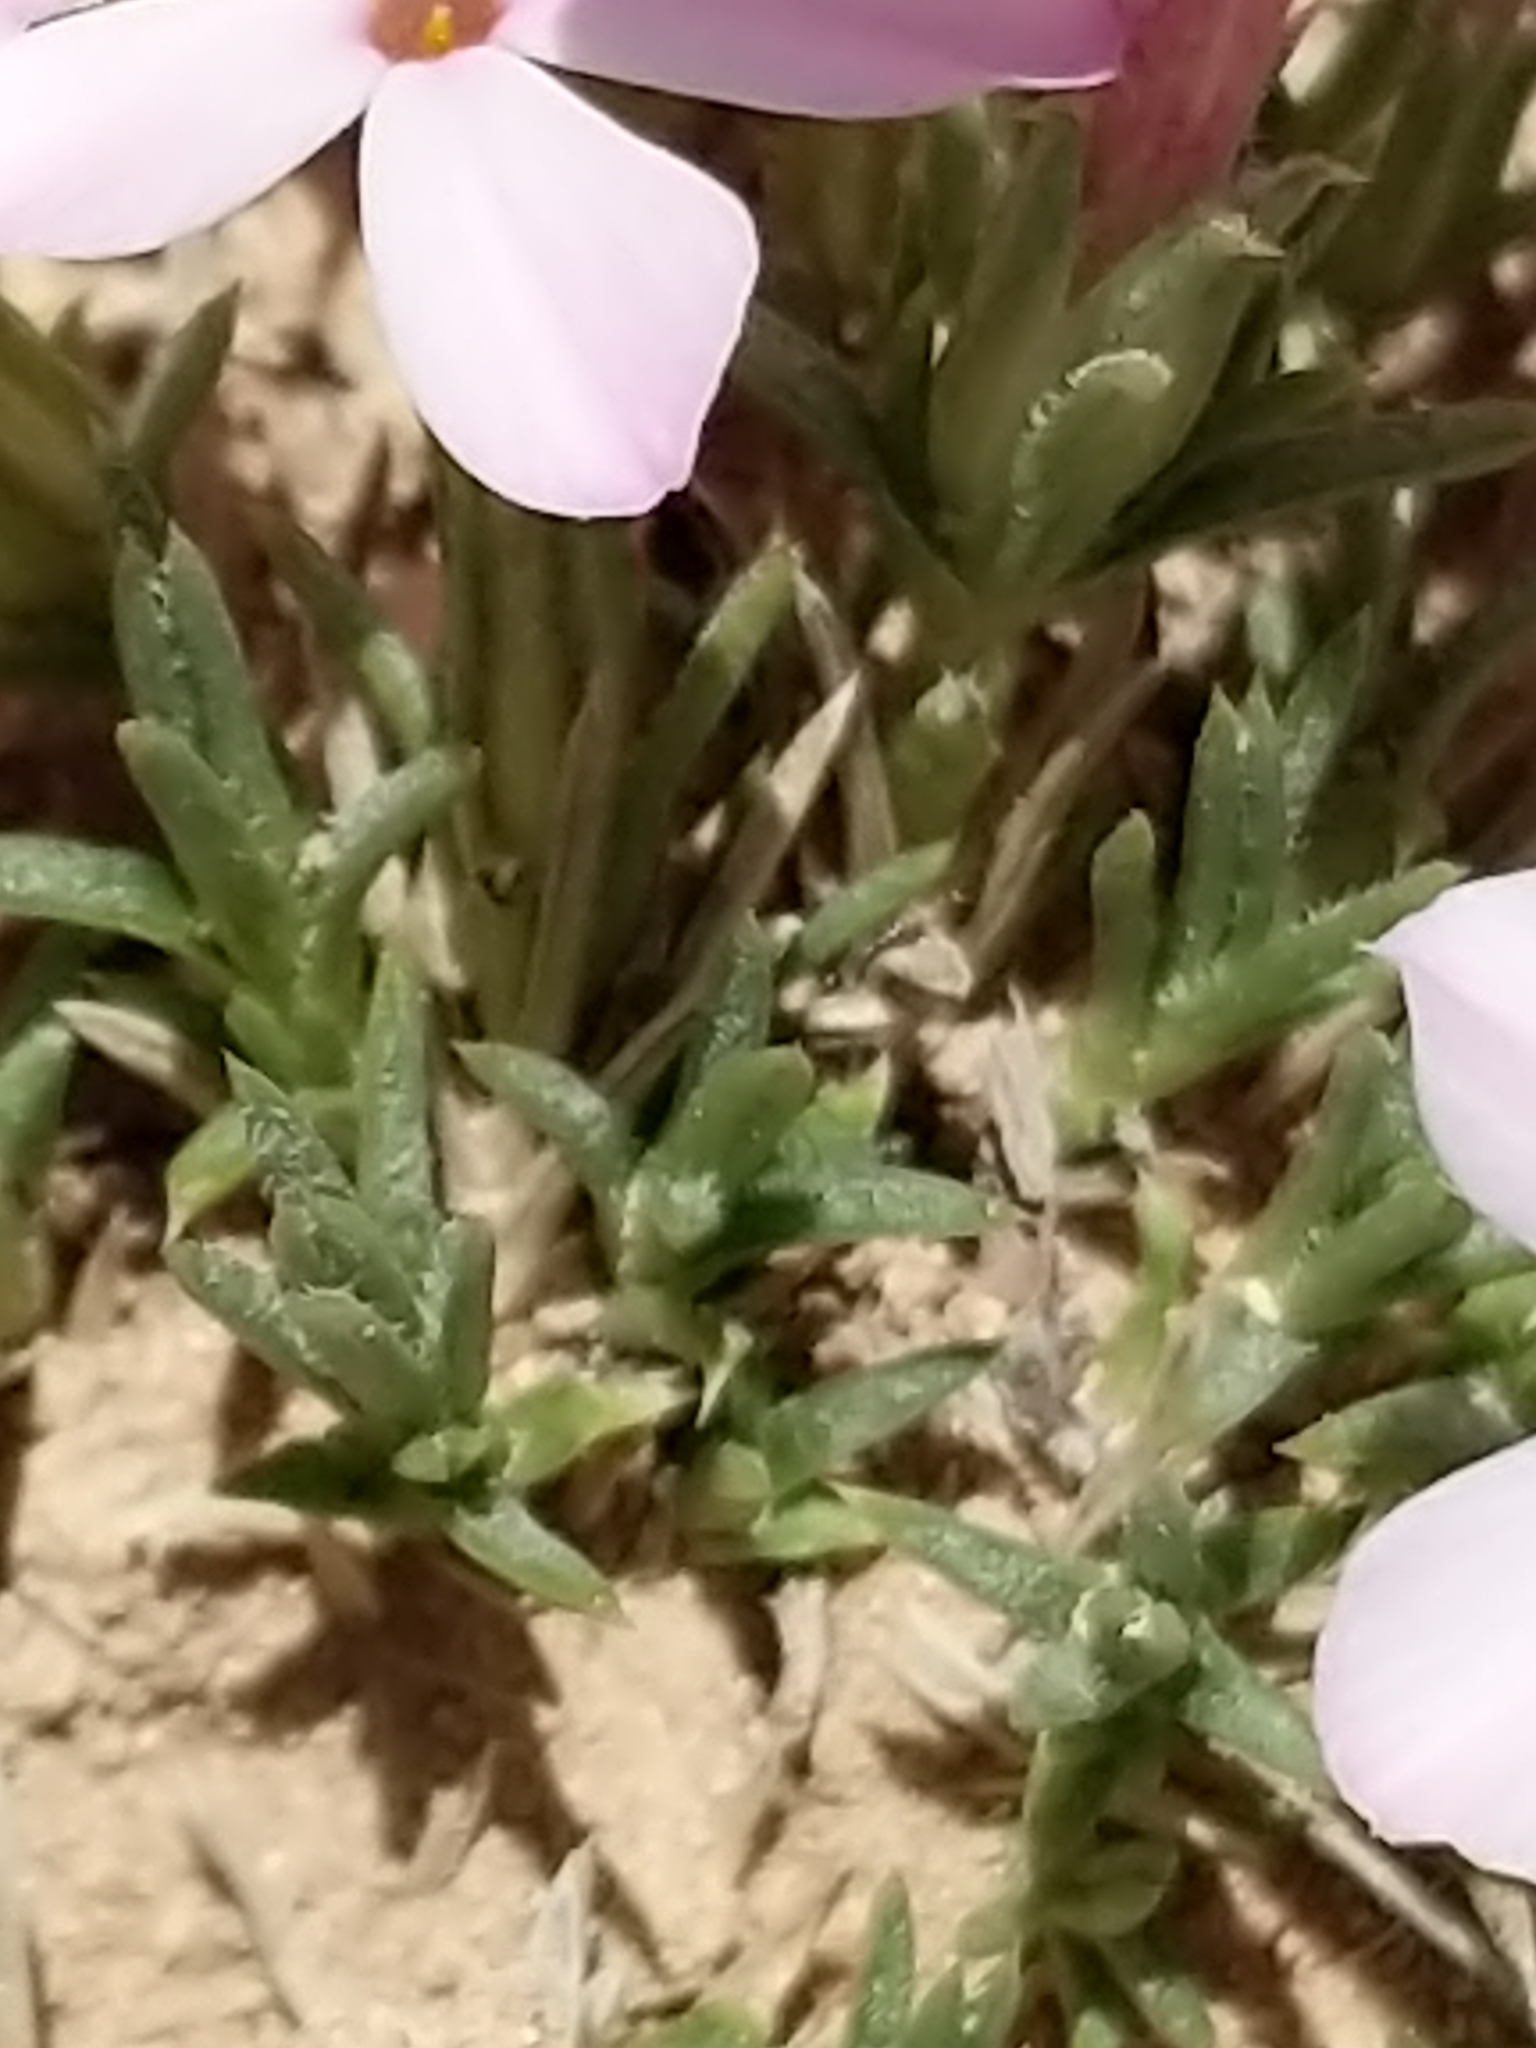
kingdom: Plantae
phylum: Tracheophyta
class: Magnoliopsida
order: Ericales
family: Polemoniaceae
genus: Phlox
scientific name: Phlox austromontana
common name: Desert phlox
